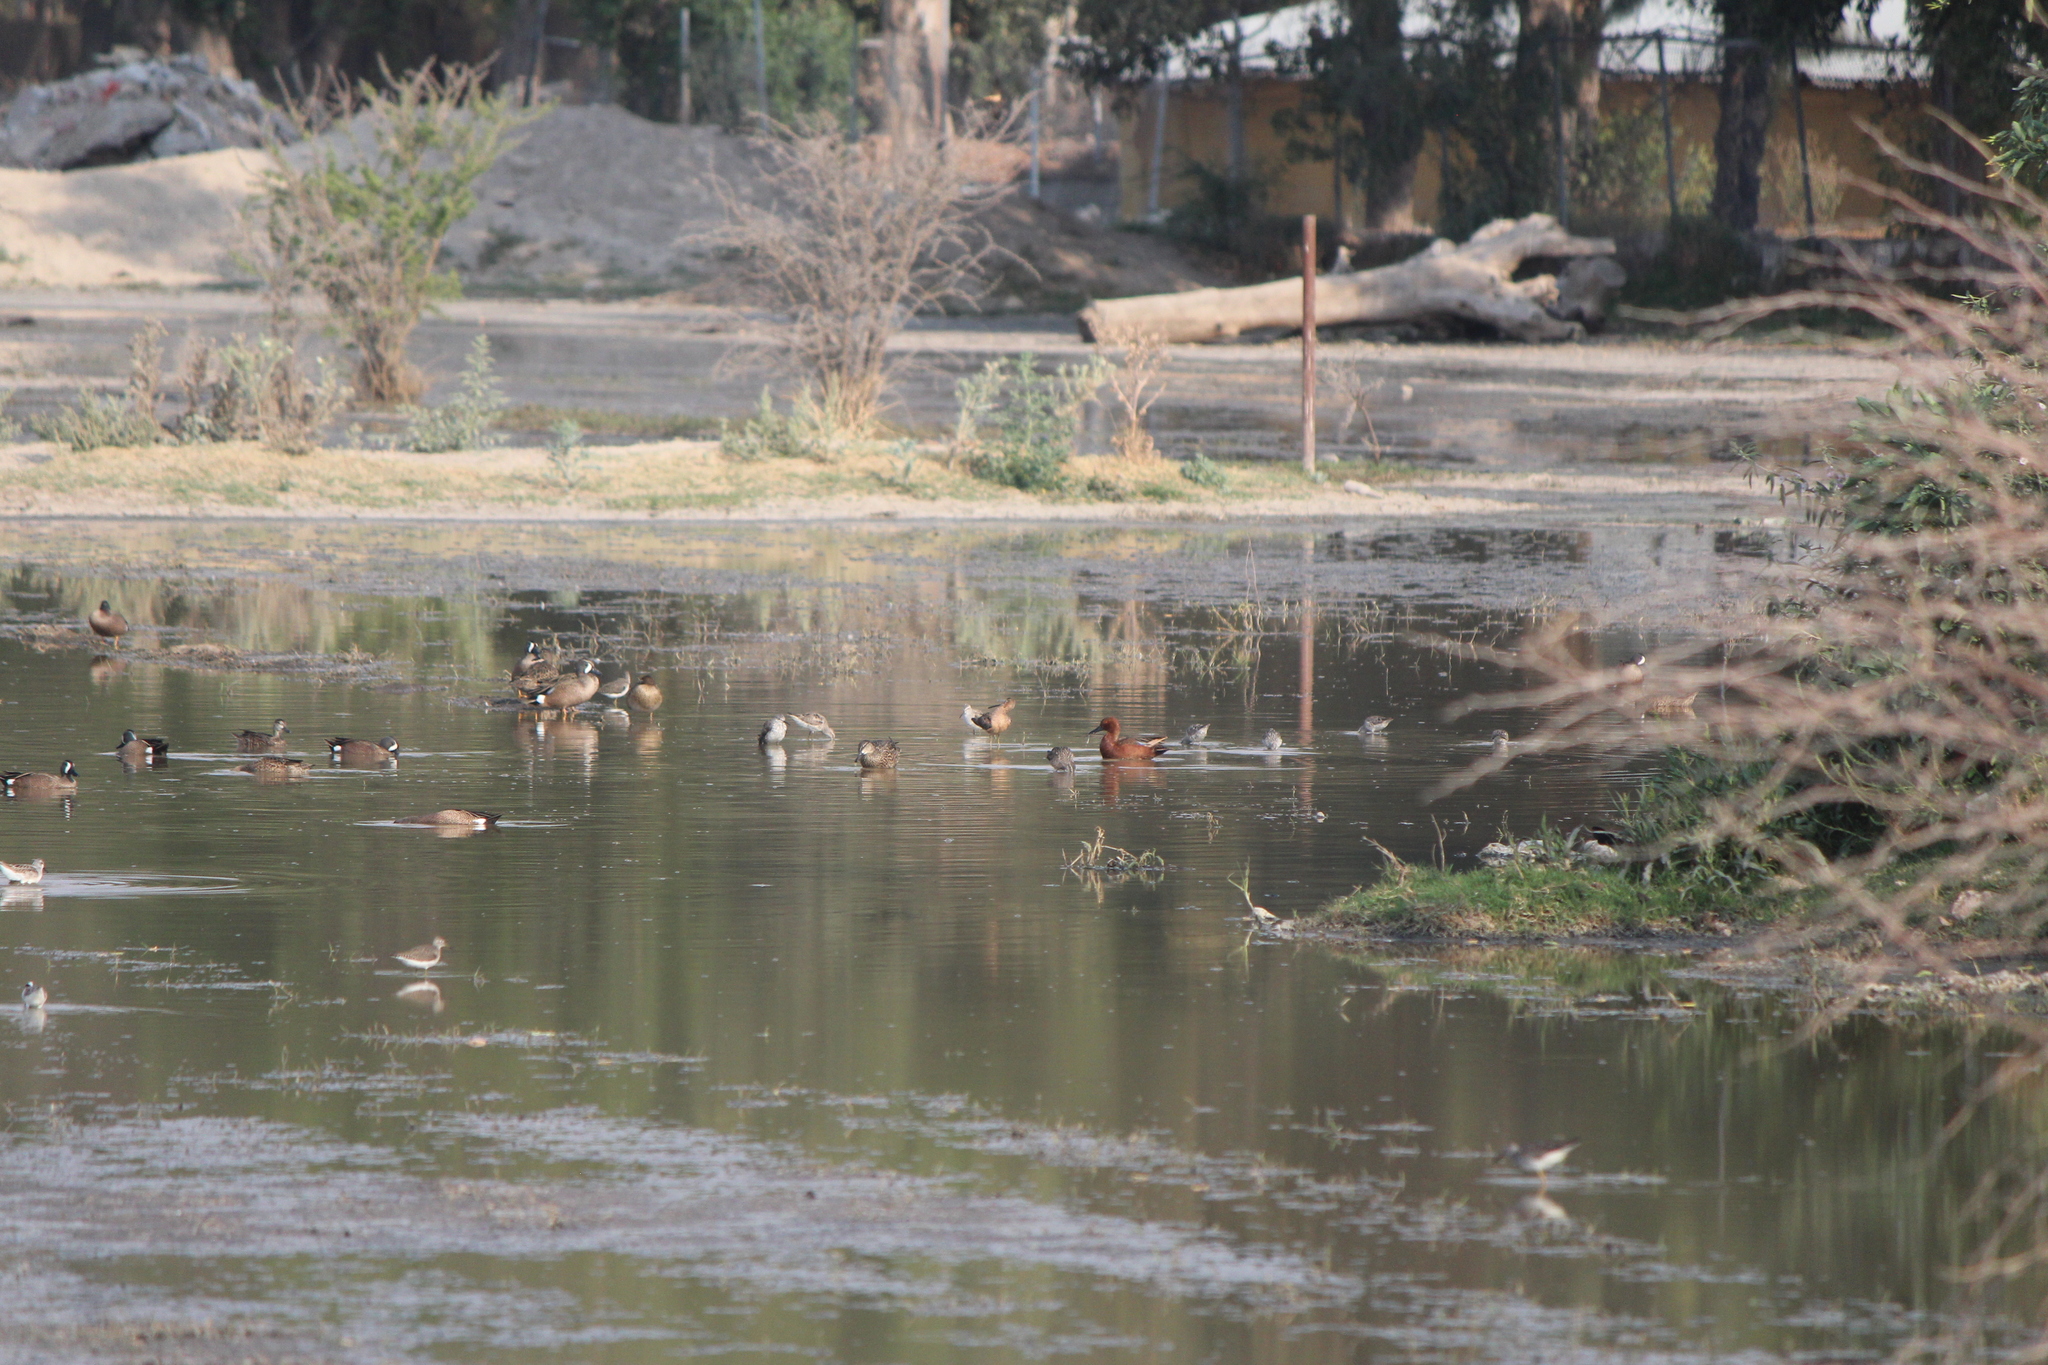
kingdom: Animalia
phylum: Chordata
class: Aves
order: Anseriformes
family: Anatidae
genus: Spatula
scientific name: Spatula cyanoptera
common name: Cinnamon teal
